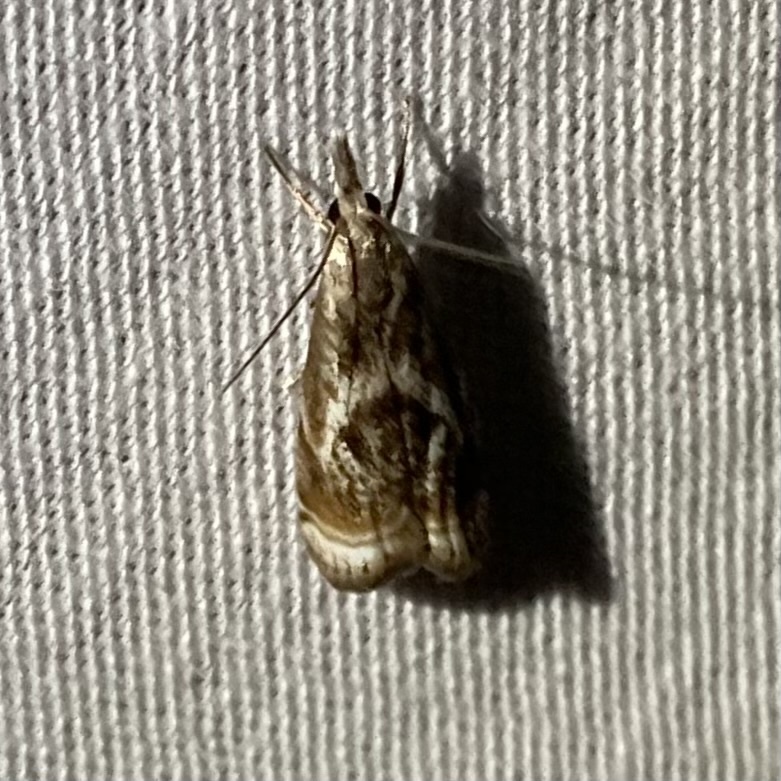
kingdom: Animalia
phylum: Arthropoda
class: Insecta
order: Lepidoptera
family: Crambidae
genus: Microcrambus
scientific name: Microcrambus elegans
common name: Elegant grass-veneer
